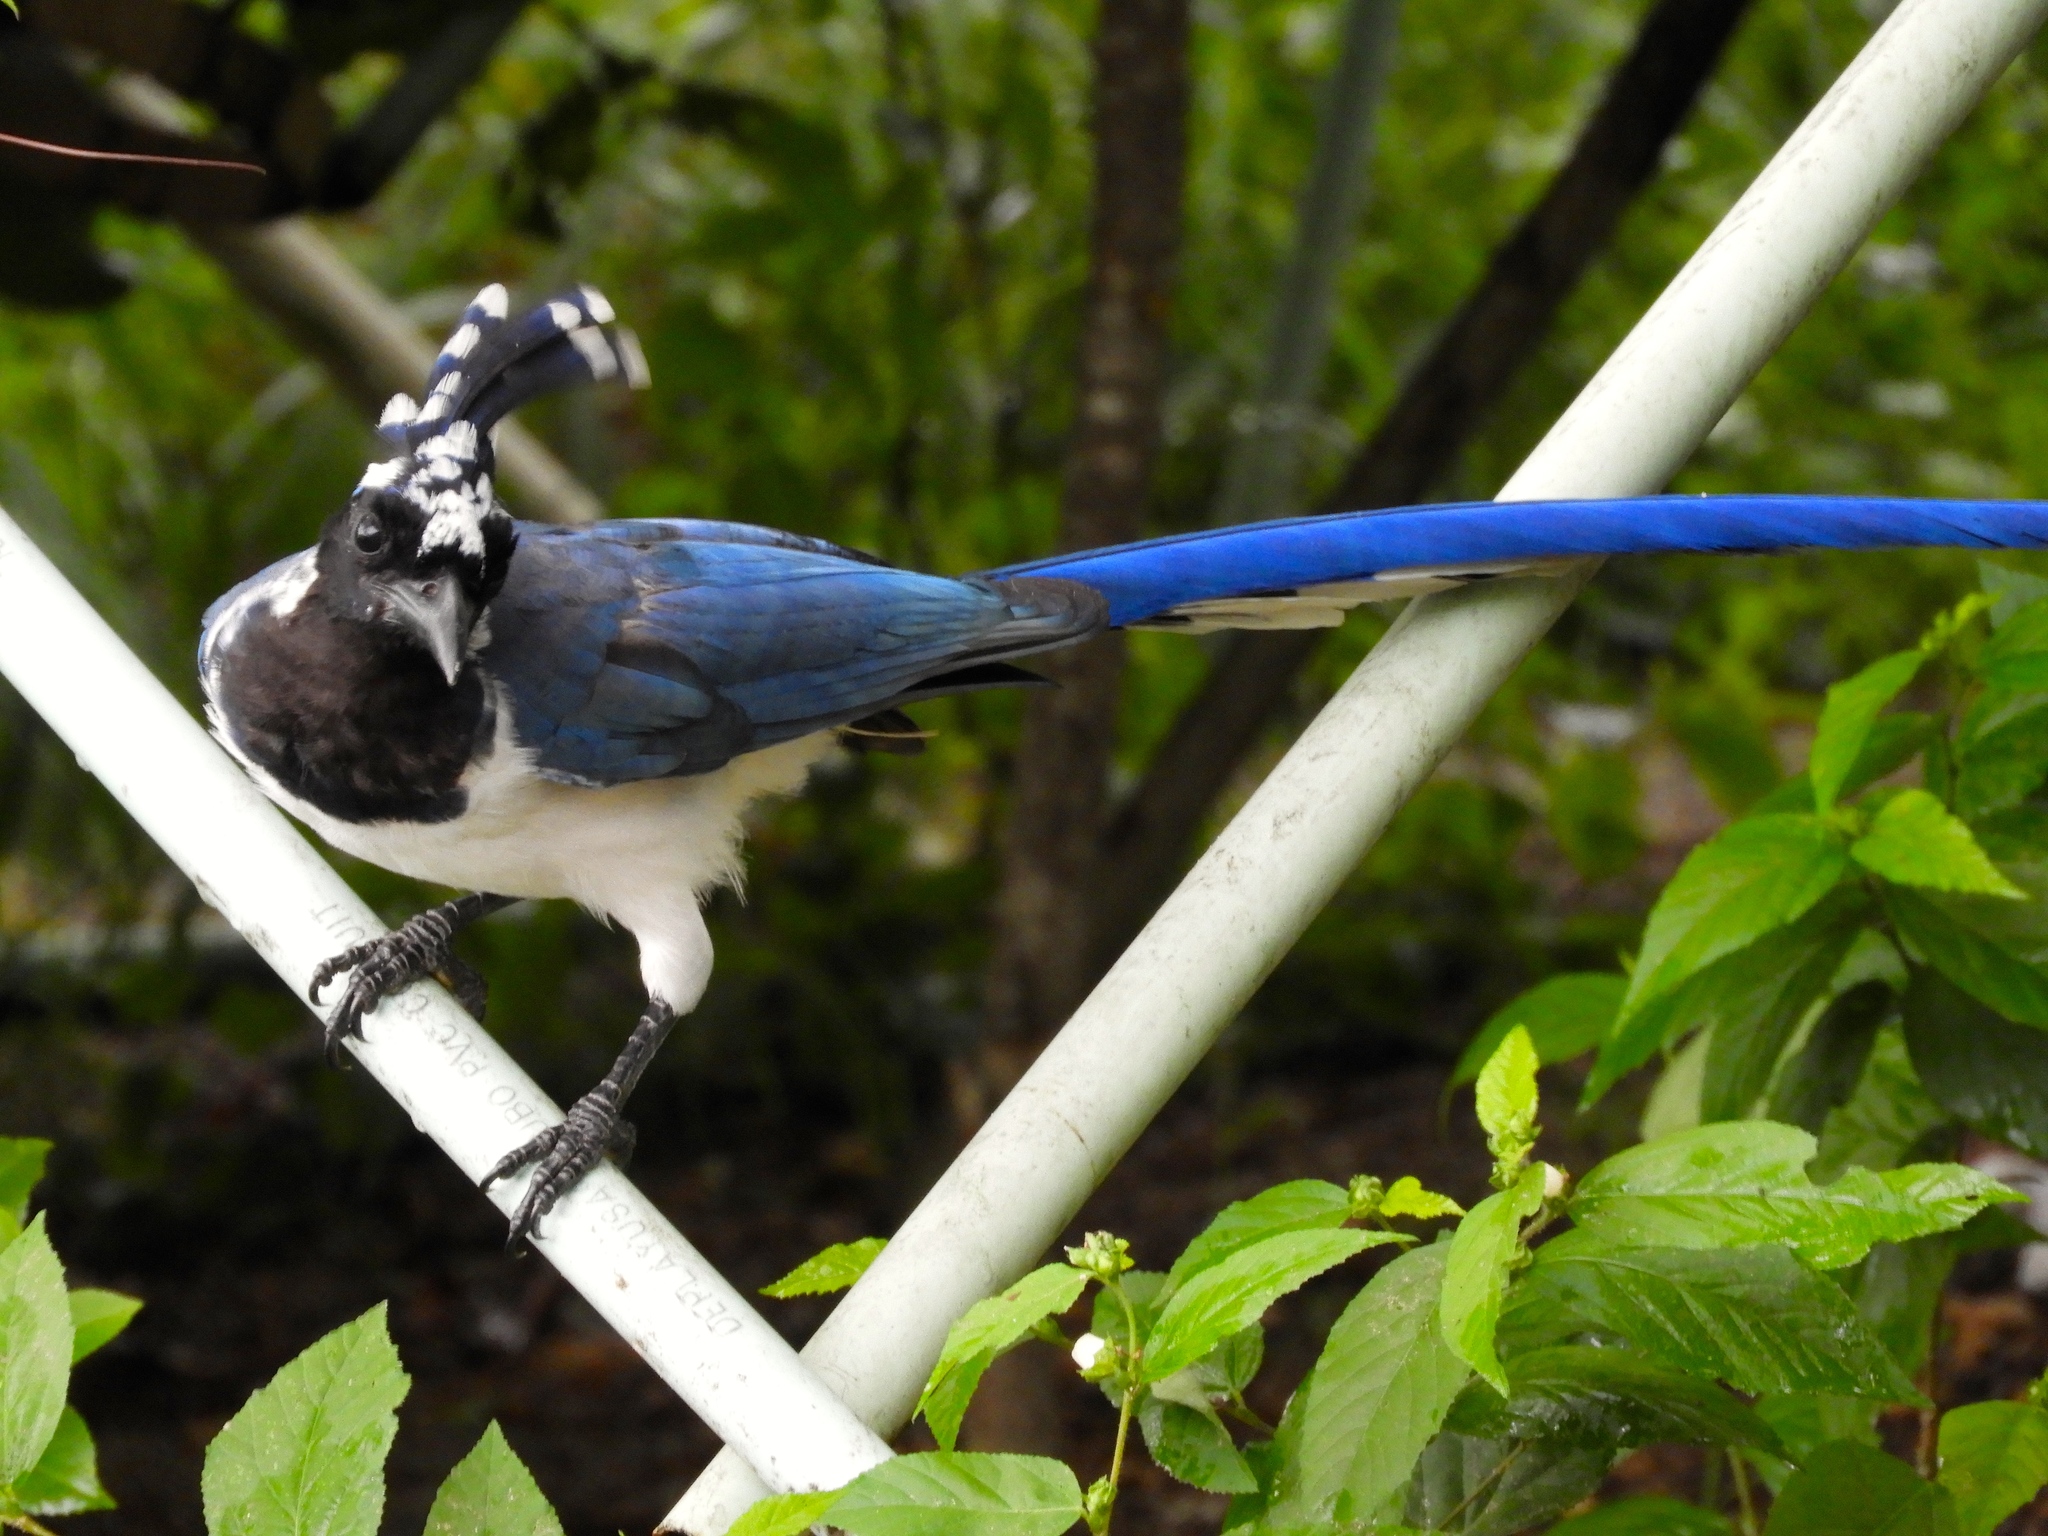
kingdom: Animalia
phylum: Chordata
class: Aves
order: Passeriformes
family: Corvidae
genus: Calocitta
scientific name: Calocitta colliei
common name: Black-throated magpie-jay
